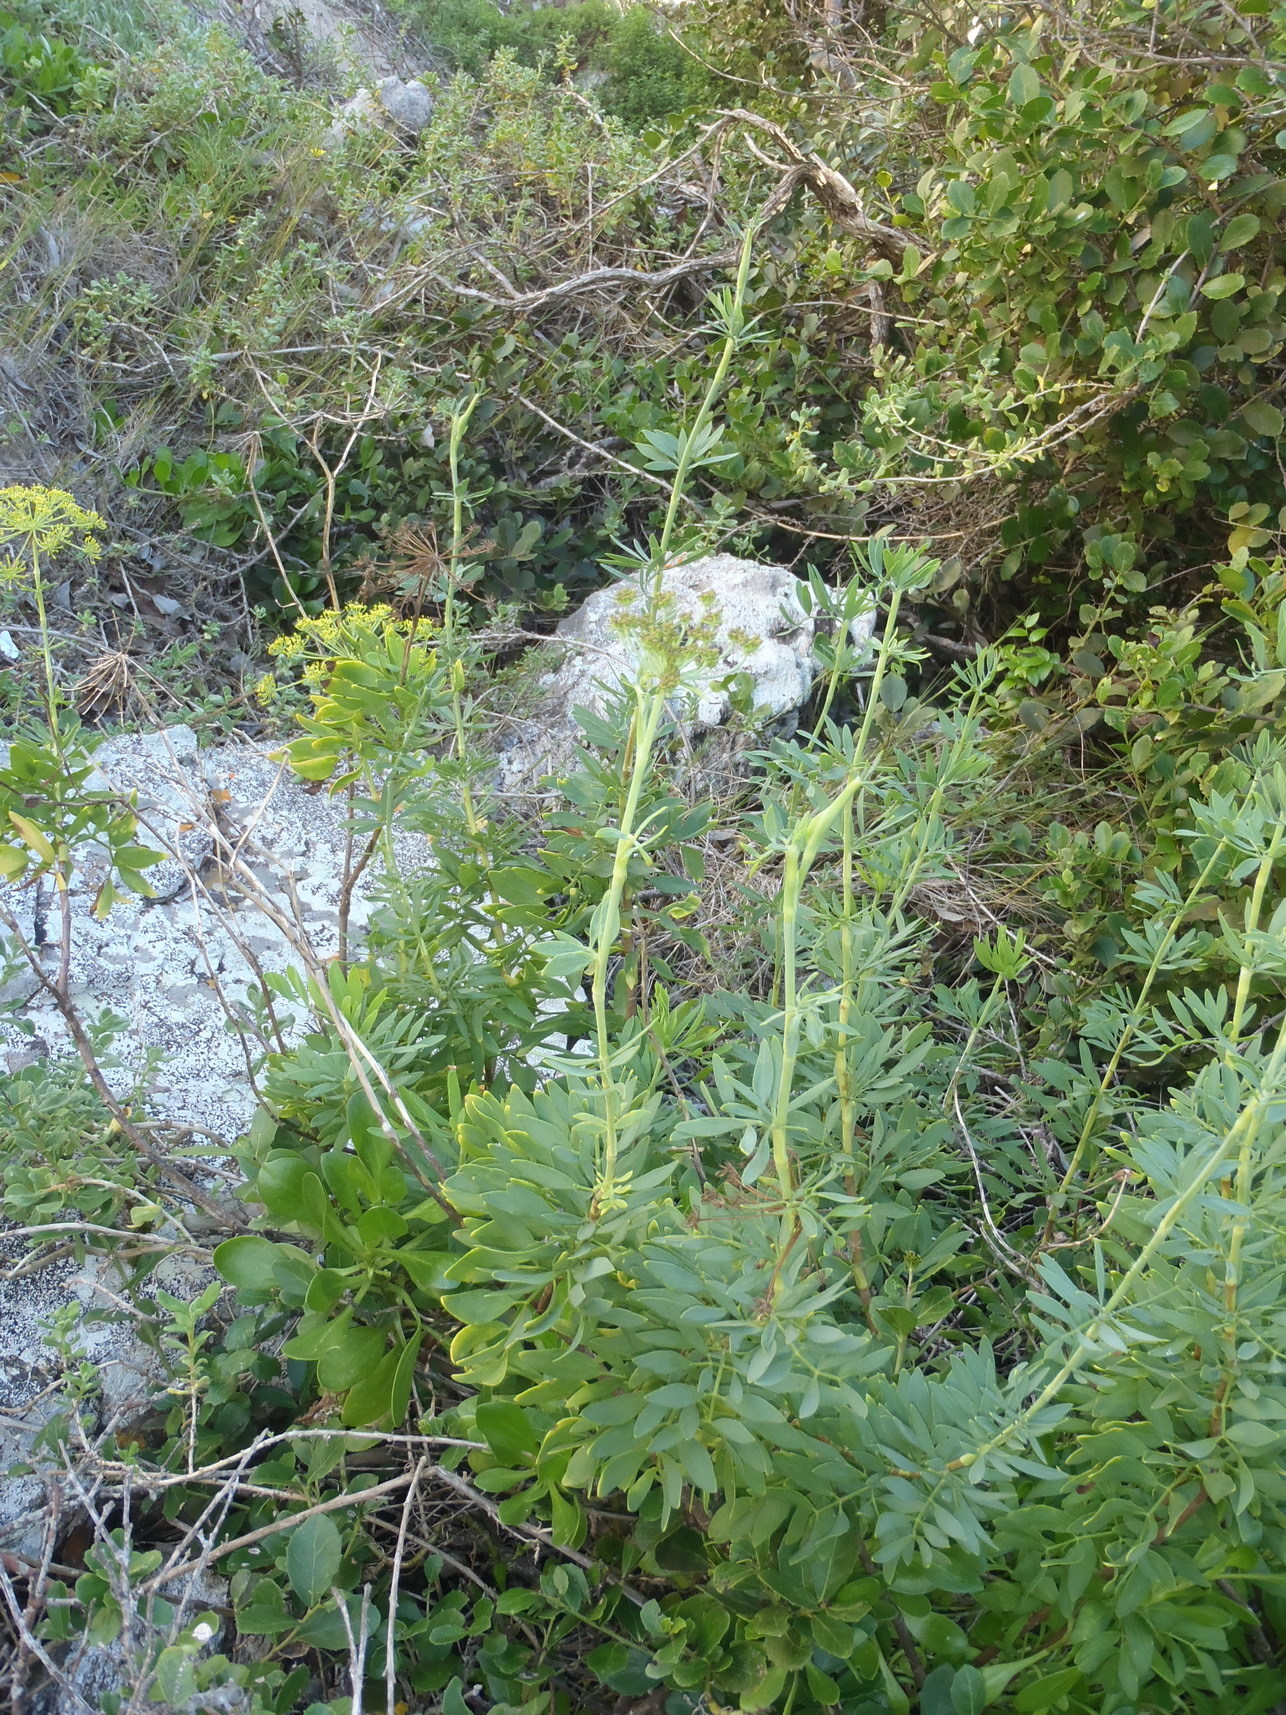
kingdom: Plantae
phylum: Tracheophyta
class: Magnoliopsida
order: Apiales
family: Apiaceae
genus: Notobubon
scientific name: Notobubon laevigatum
